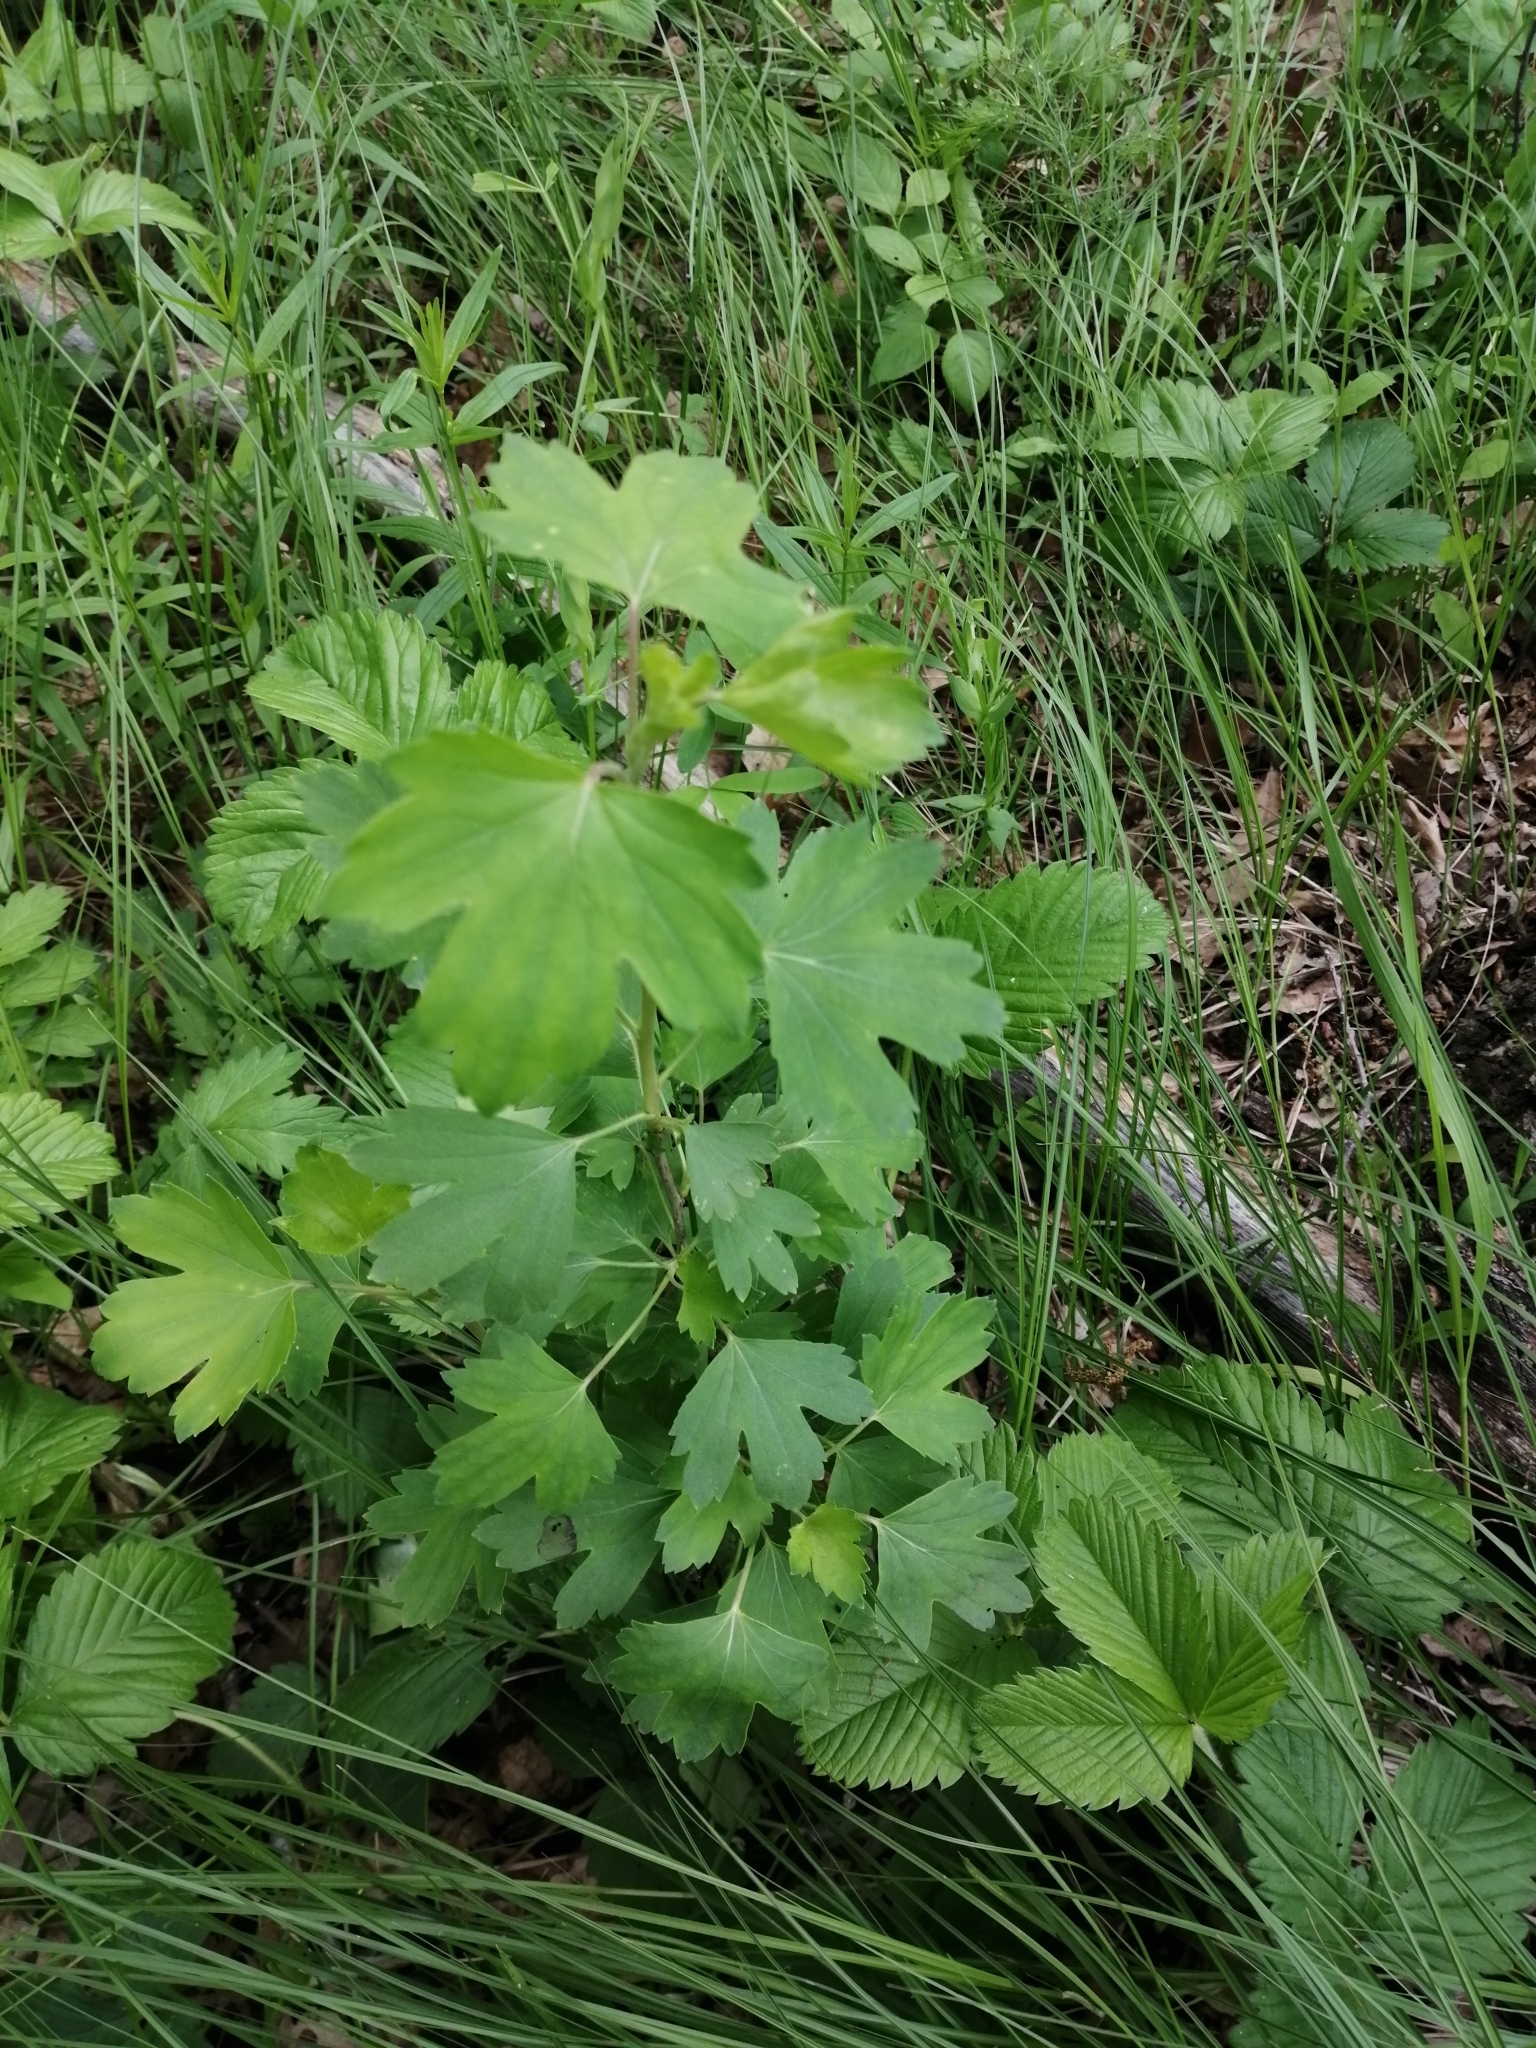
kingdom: Plantae
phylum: Tracheophyta
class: Magnoliopsida
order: Saxifragales
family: Grossulariaceae
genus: Ribes
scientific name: Ribes aureum
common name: Golden currant
